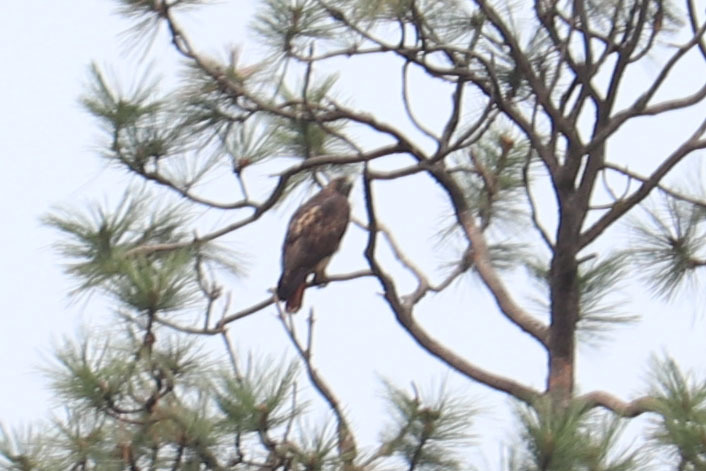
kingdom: Animalia
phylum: Chordata
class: Aves
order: Accipitriformes
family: Accipitridae
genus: Buteo
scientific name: Buteo jamaicensis
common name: Red-tailed hawk
